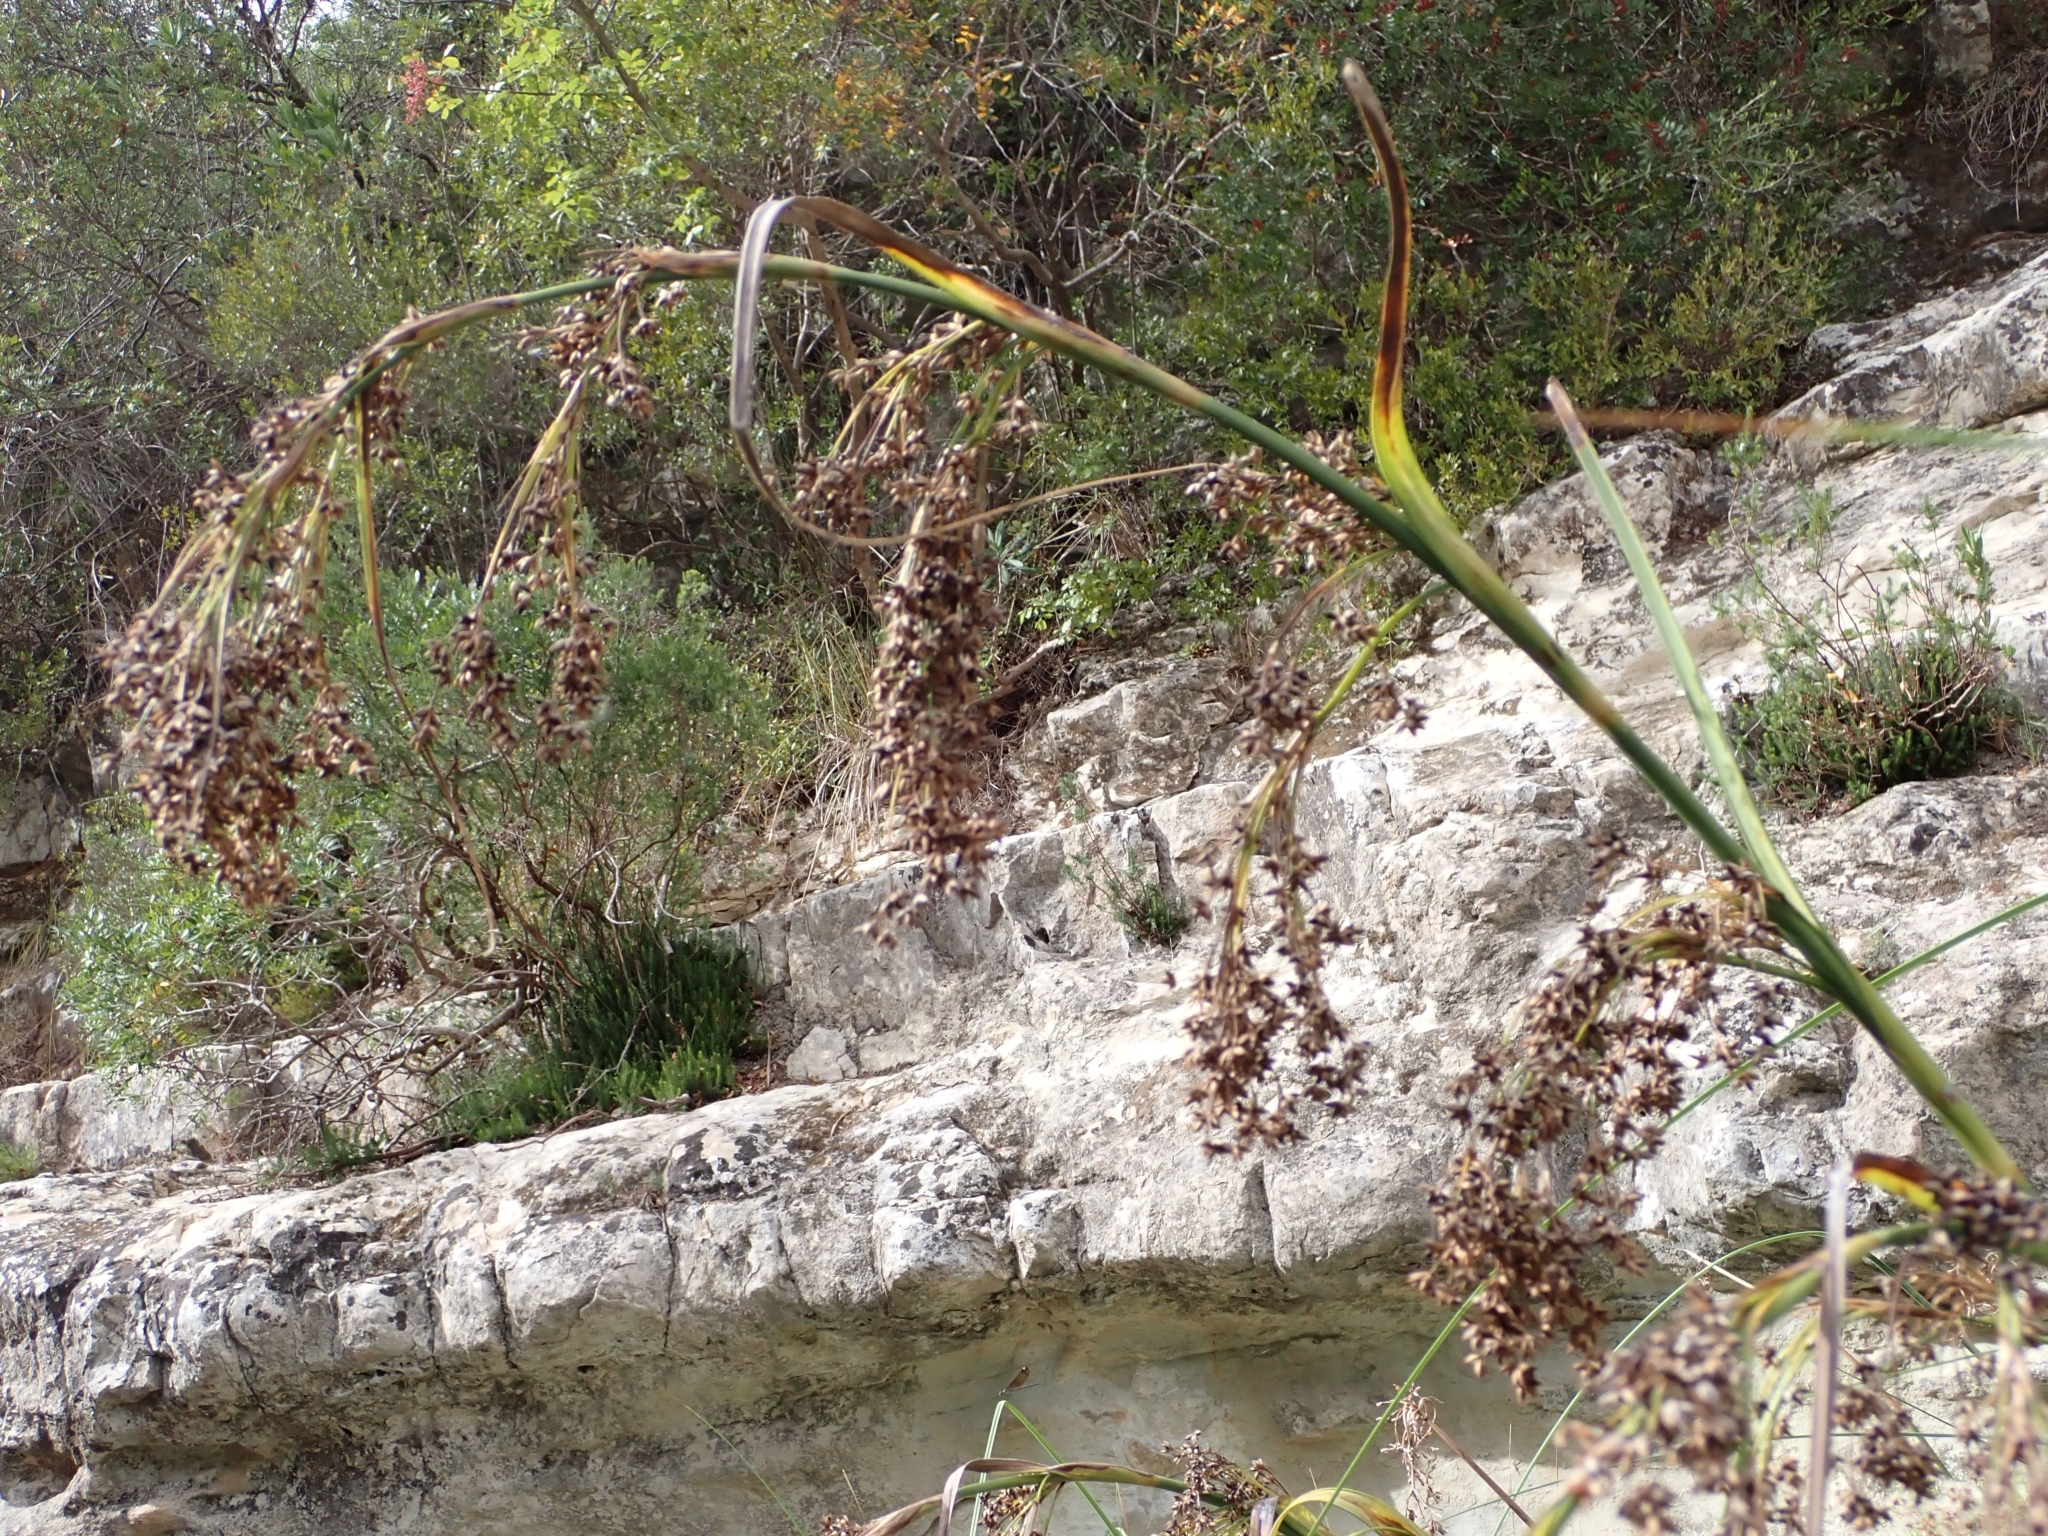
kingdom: Plantae
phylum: Tracheophyta
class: Liliopsida
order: Poales
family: Cyperaceae
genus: Cladium
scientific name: Cladium mariscus
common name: Great fen-sedge
